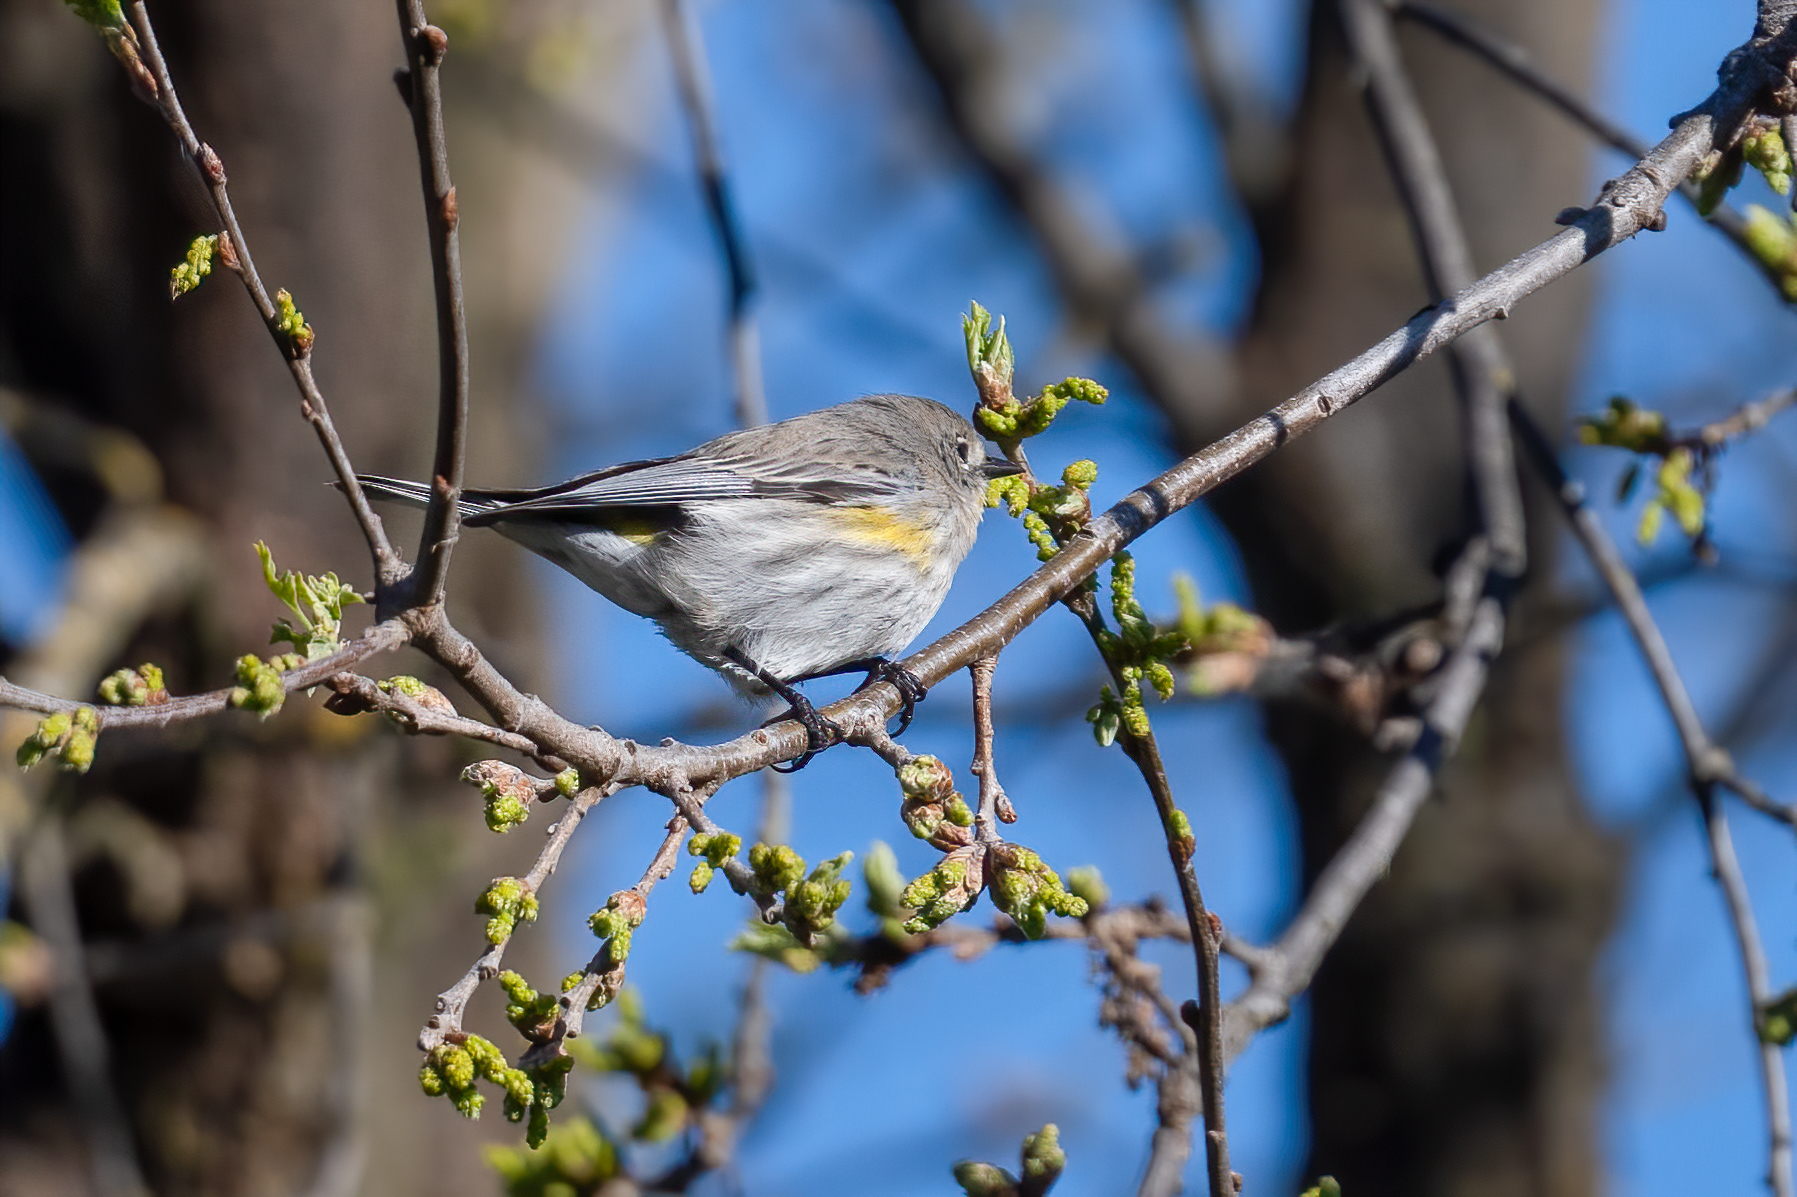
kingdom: Animalia
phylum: Chordata
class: Aves
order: Passeriformes
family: Parulidae
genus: Setophaga
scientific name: Setophaga coronata
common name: Myrtle warbler
